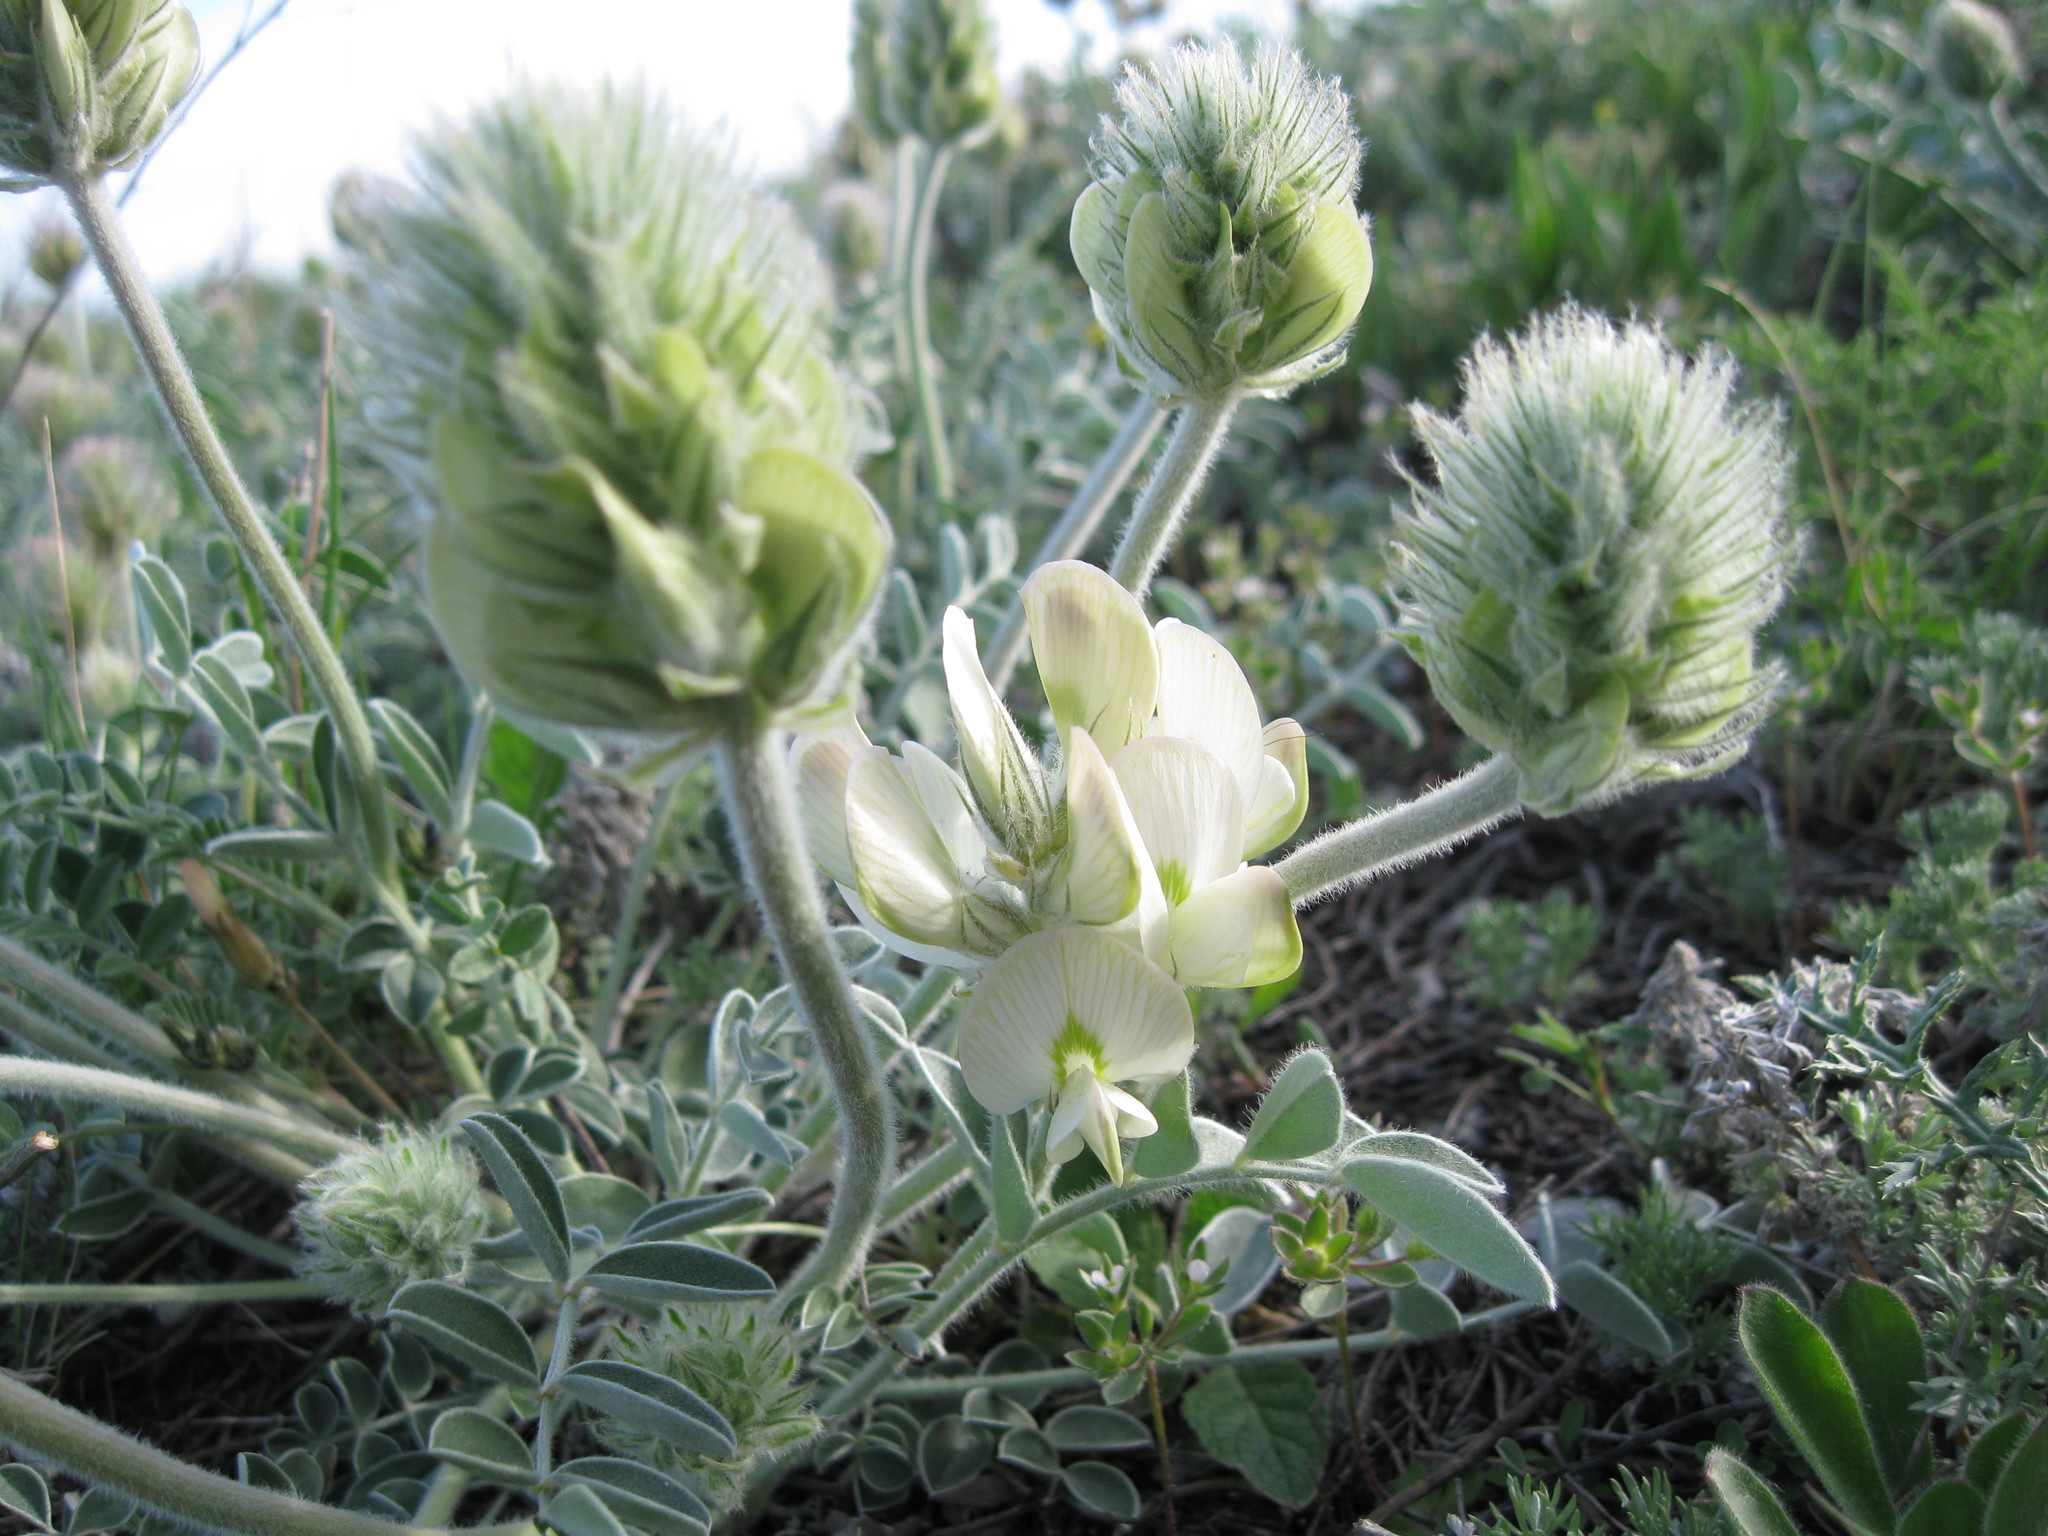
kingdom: Plantae
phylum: Tracheophyta
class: Magnoliopsida
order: Fabales
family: Fabaceae
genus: Hedysarum
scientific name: Hedysarum grandiflorum
